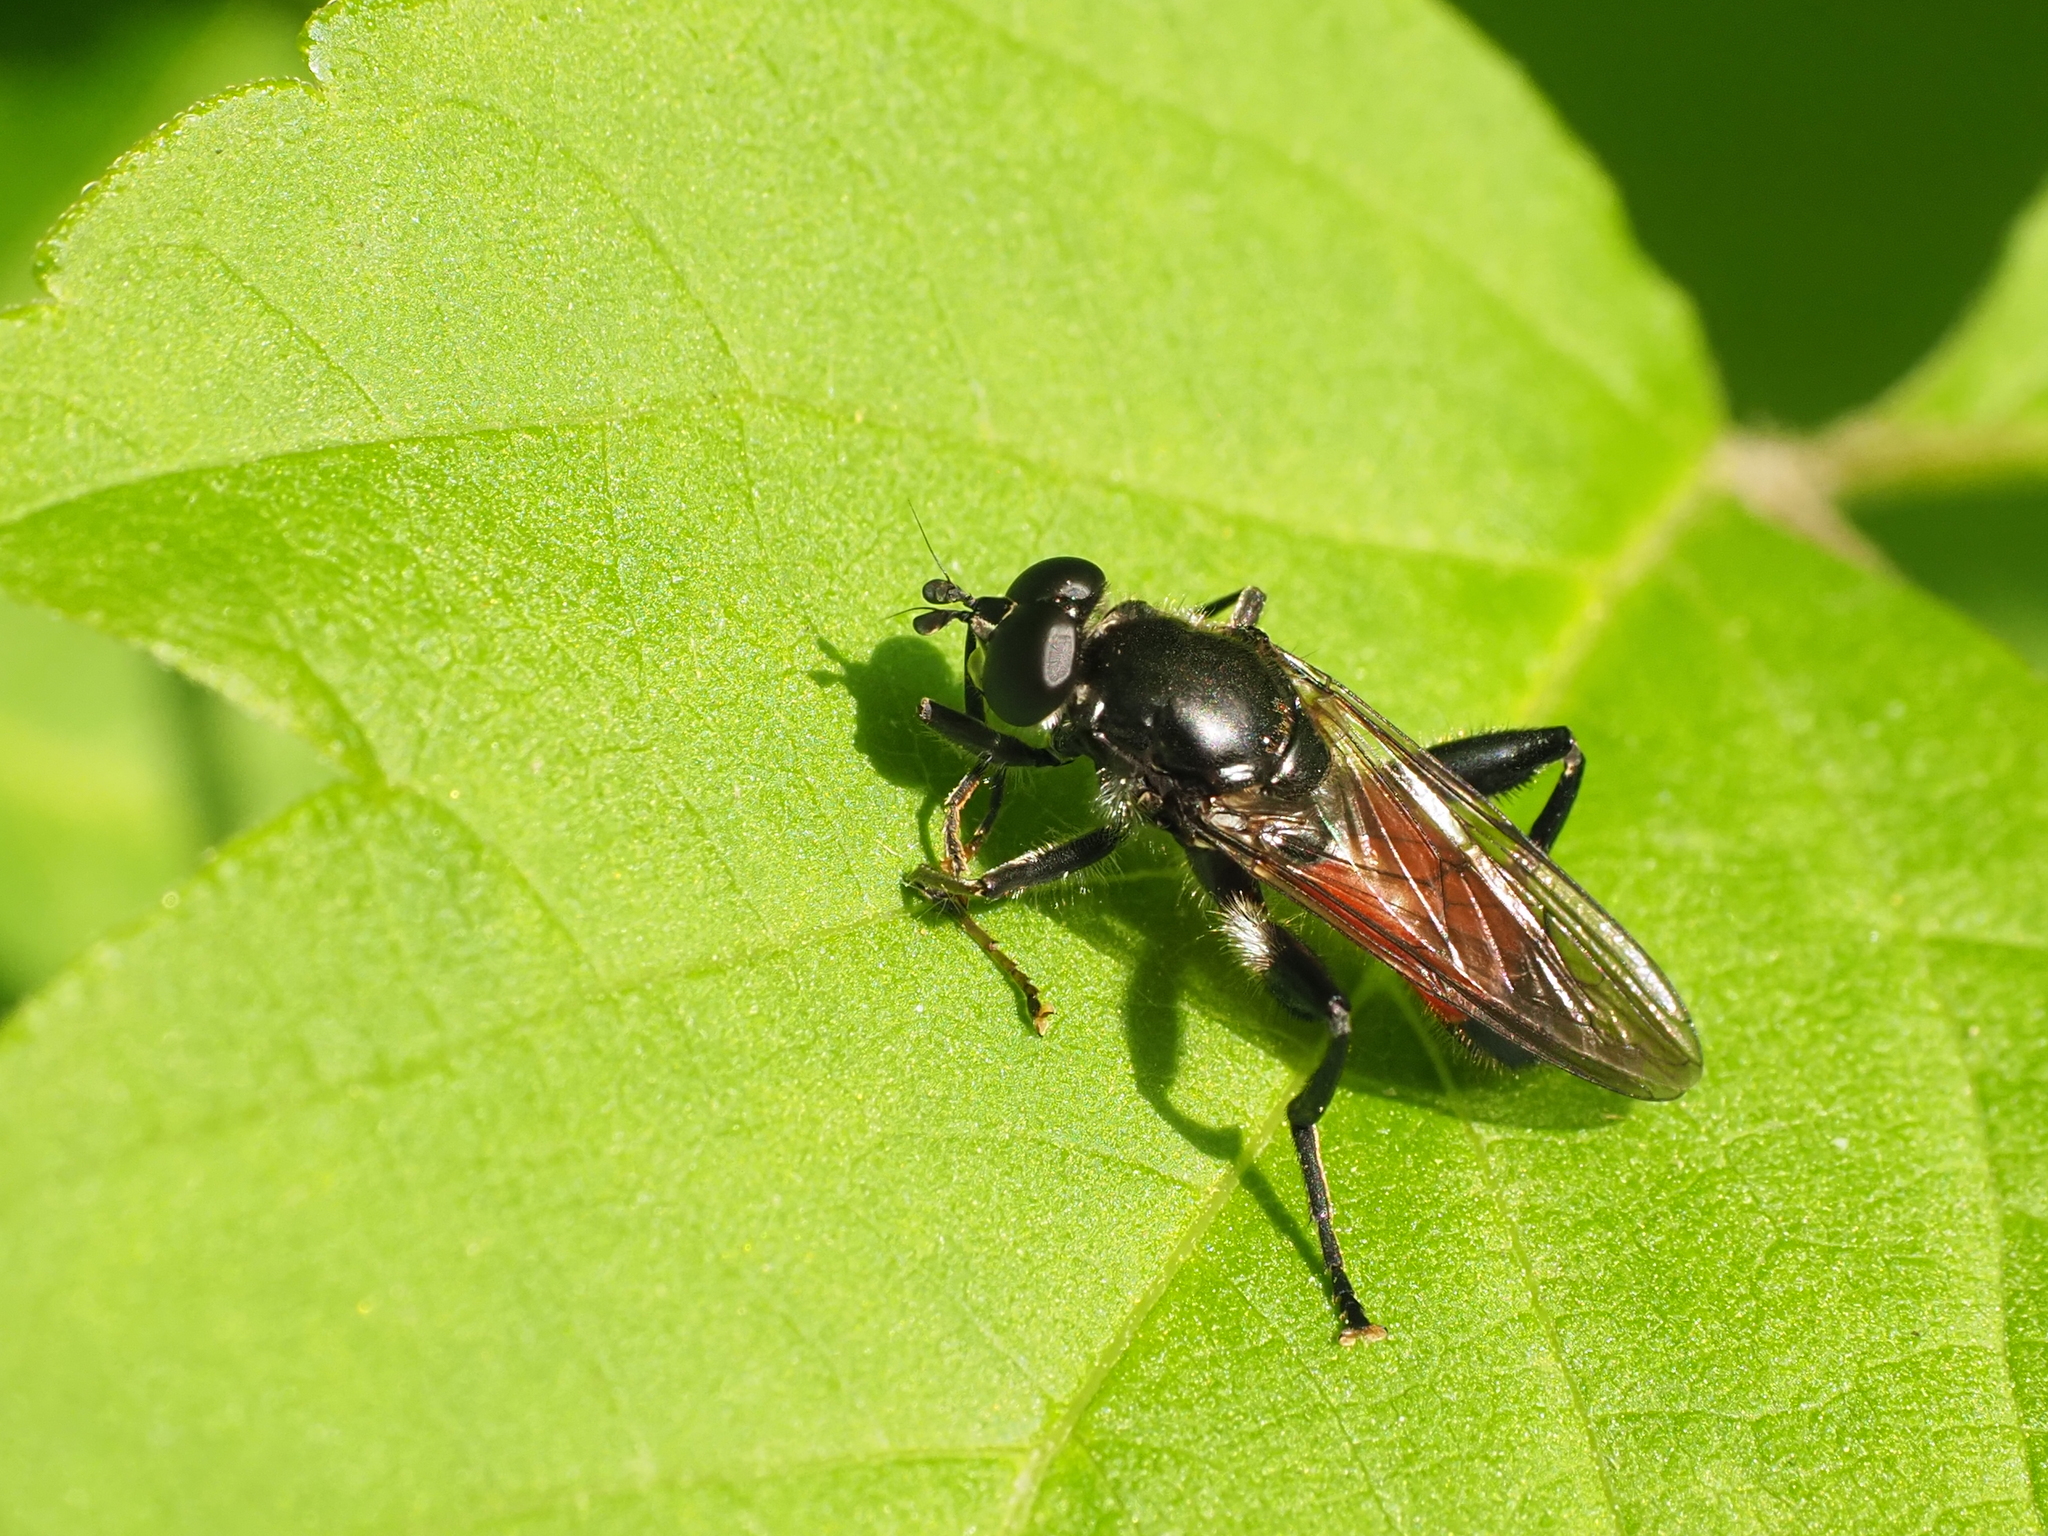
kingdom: Animalia
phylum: Arthropoda
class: Insecta
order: Diptera
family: Syrphidae
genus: Brachypalpoides
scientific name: Brachypalpoides lenta
